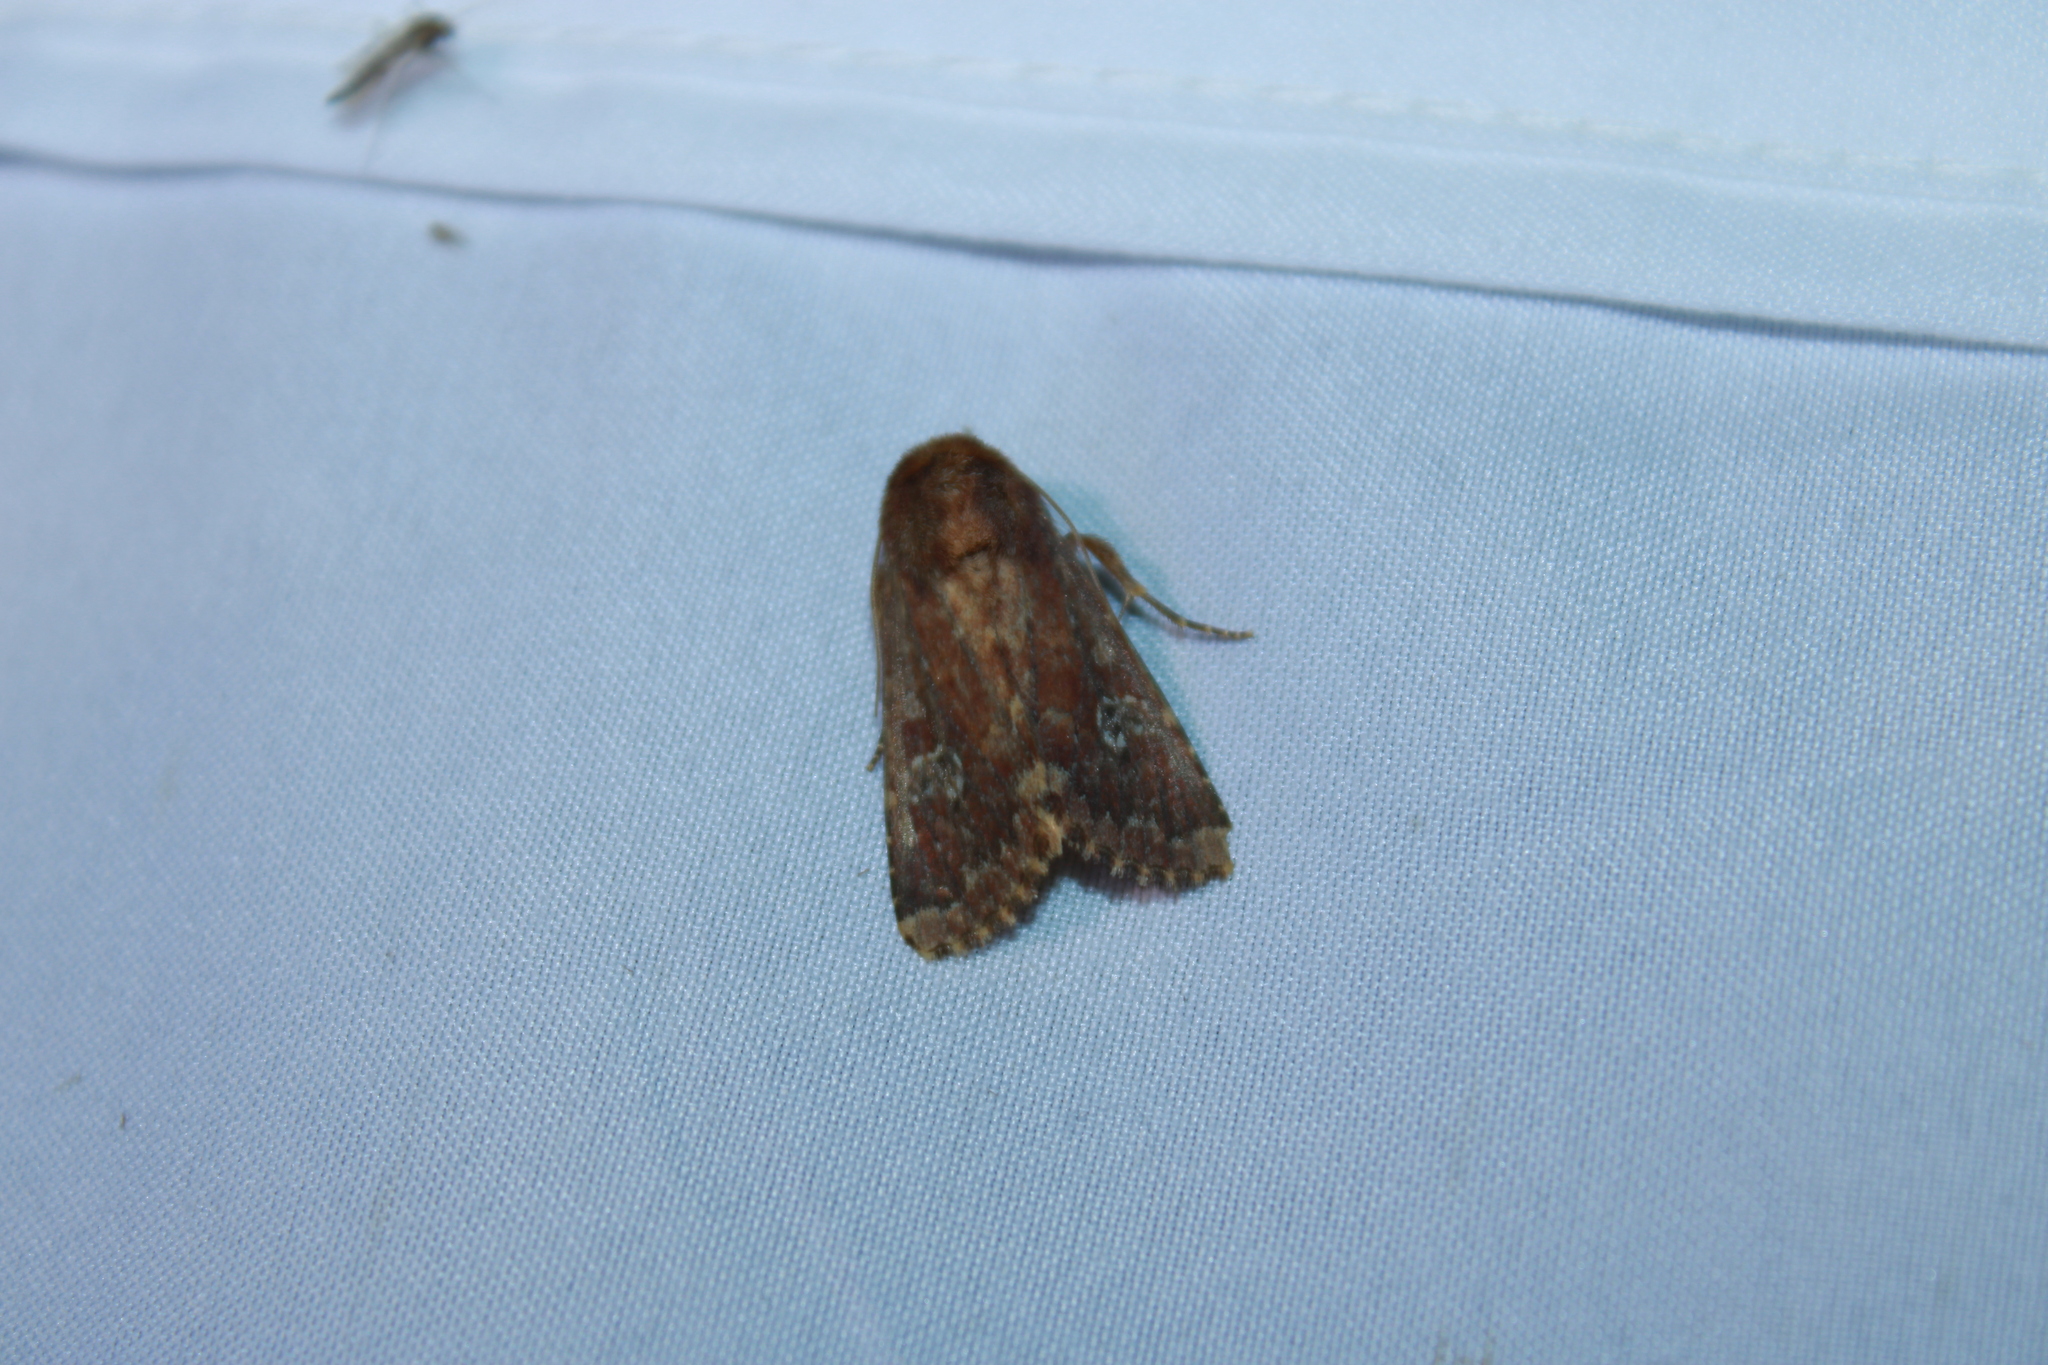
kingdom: Animalia
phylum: Arthropoda
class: Insecta
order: Lepidoptera
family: Noctuidae
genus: Sideridis
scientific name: Sideridis congermana
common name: German cousin moth
